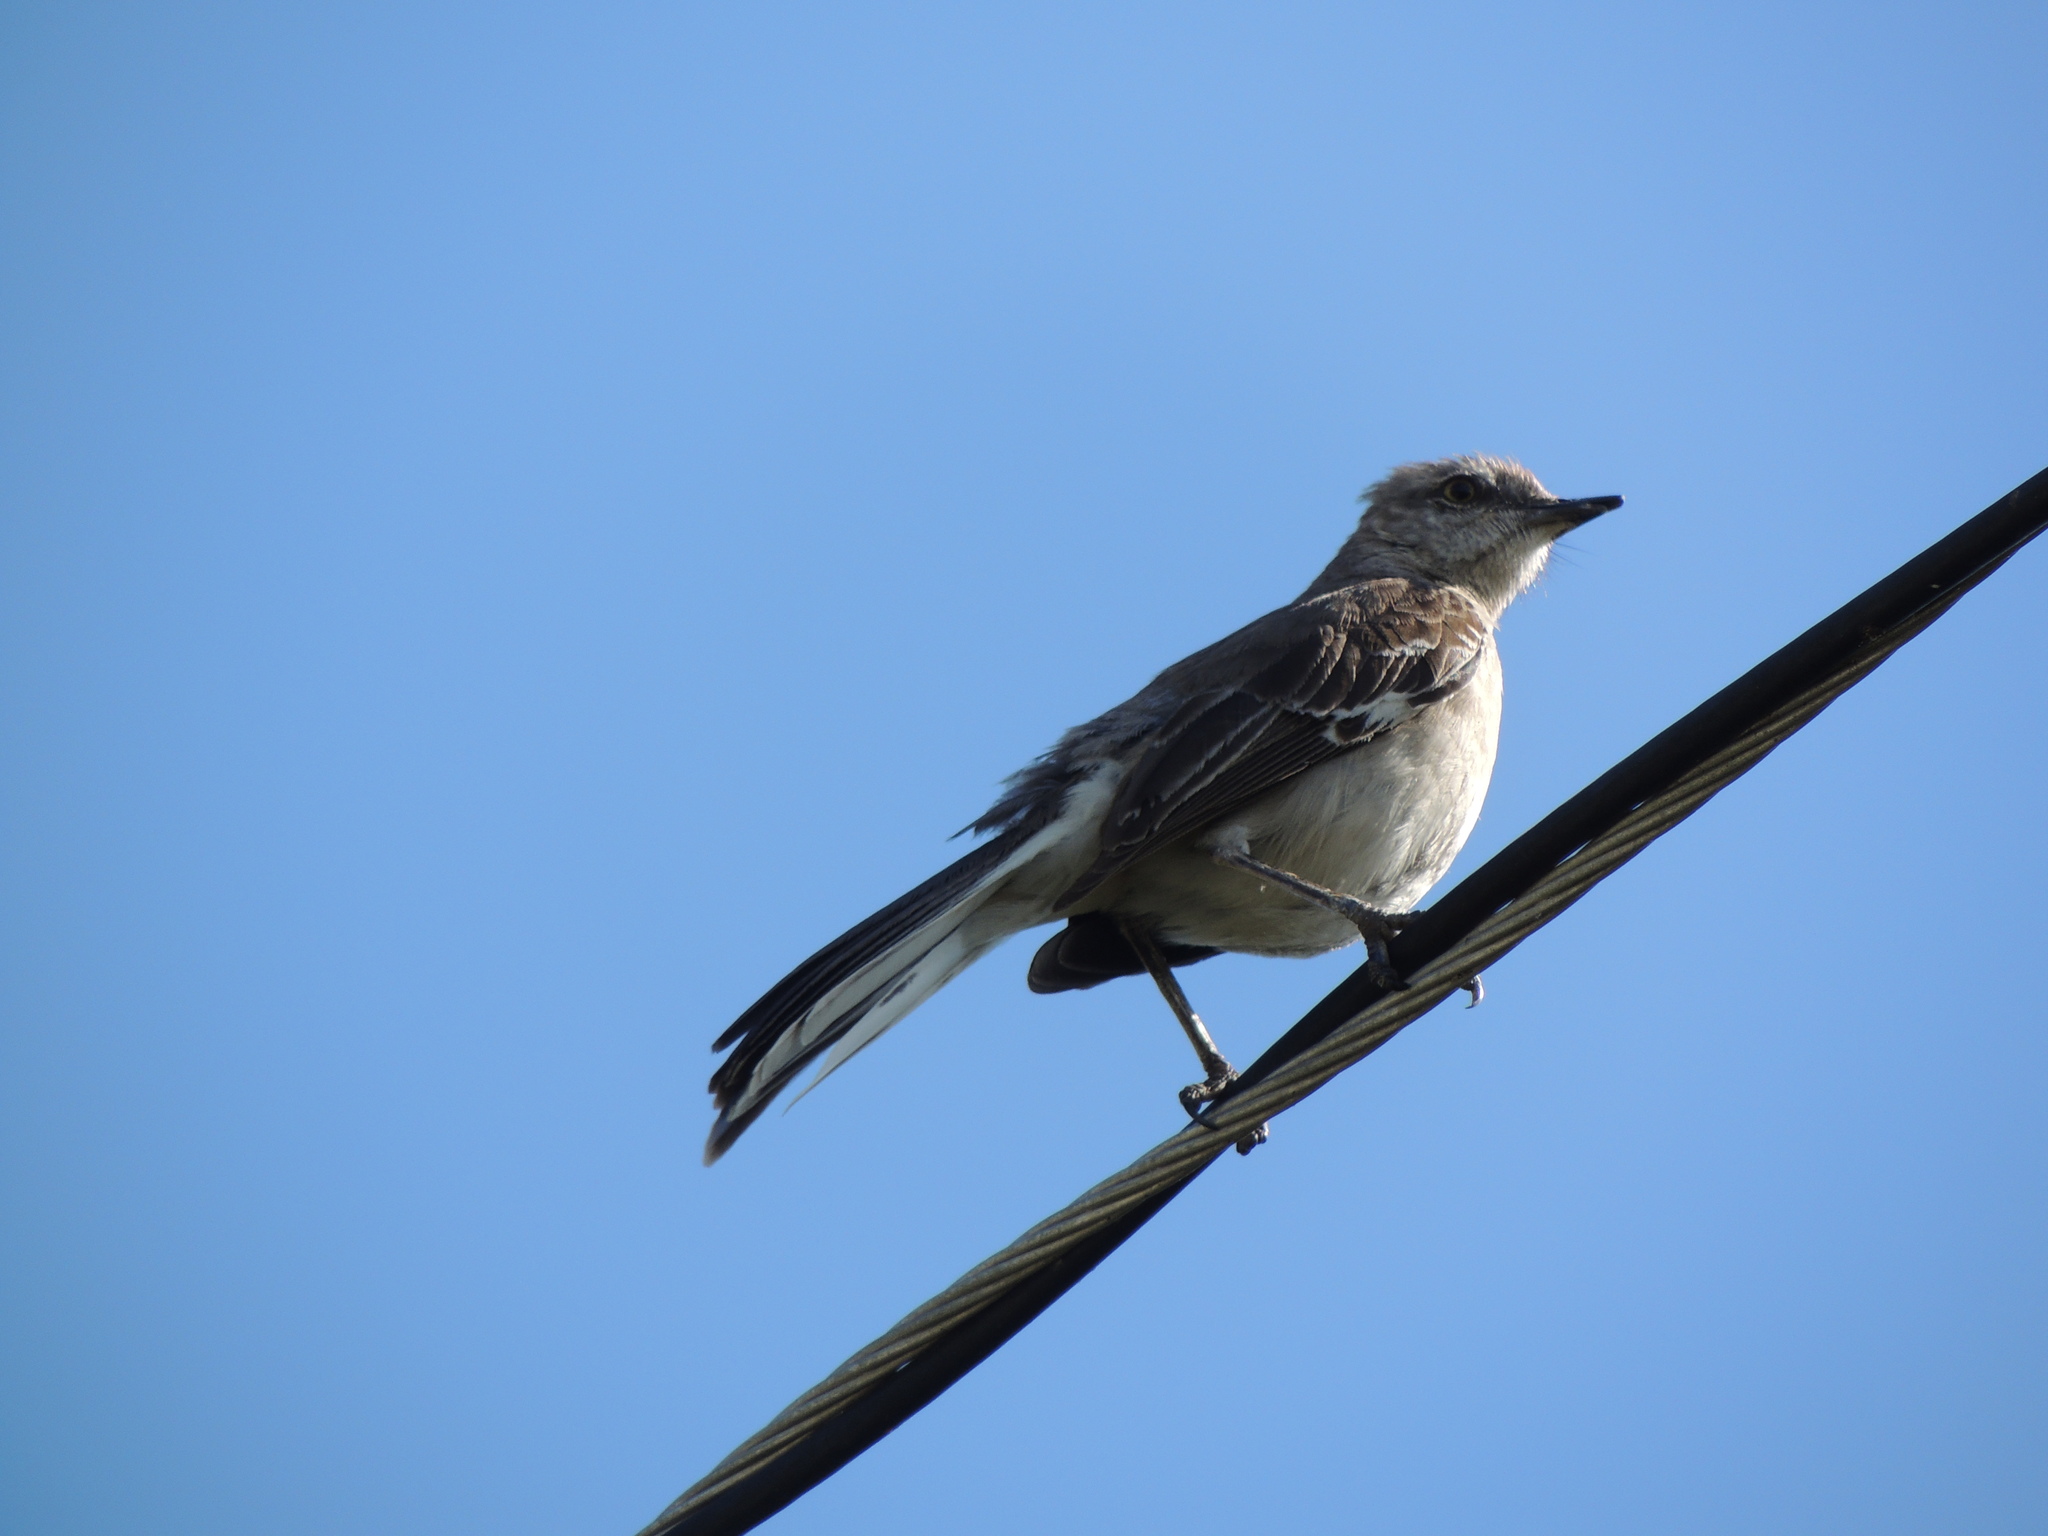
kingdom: Animalia
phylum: Chordata
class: Aves
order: Passeriformes
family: Mimidae
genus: Mimus
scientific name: Mimus polyglottos
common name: Northern mockingbird
